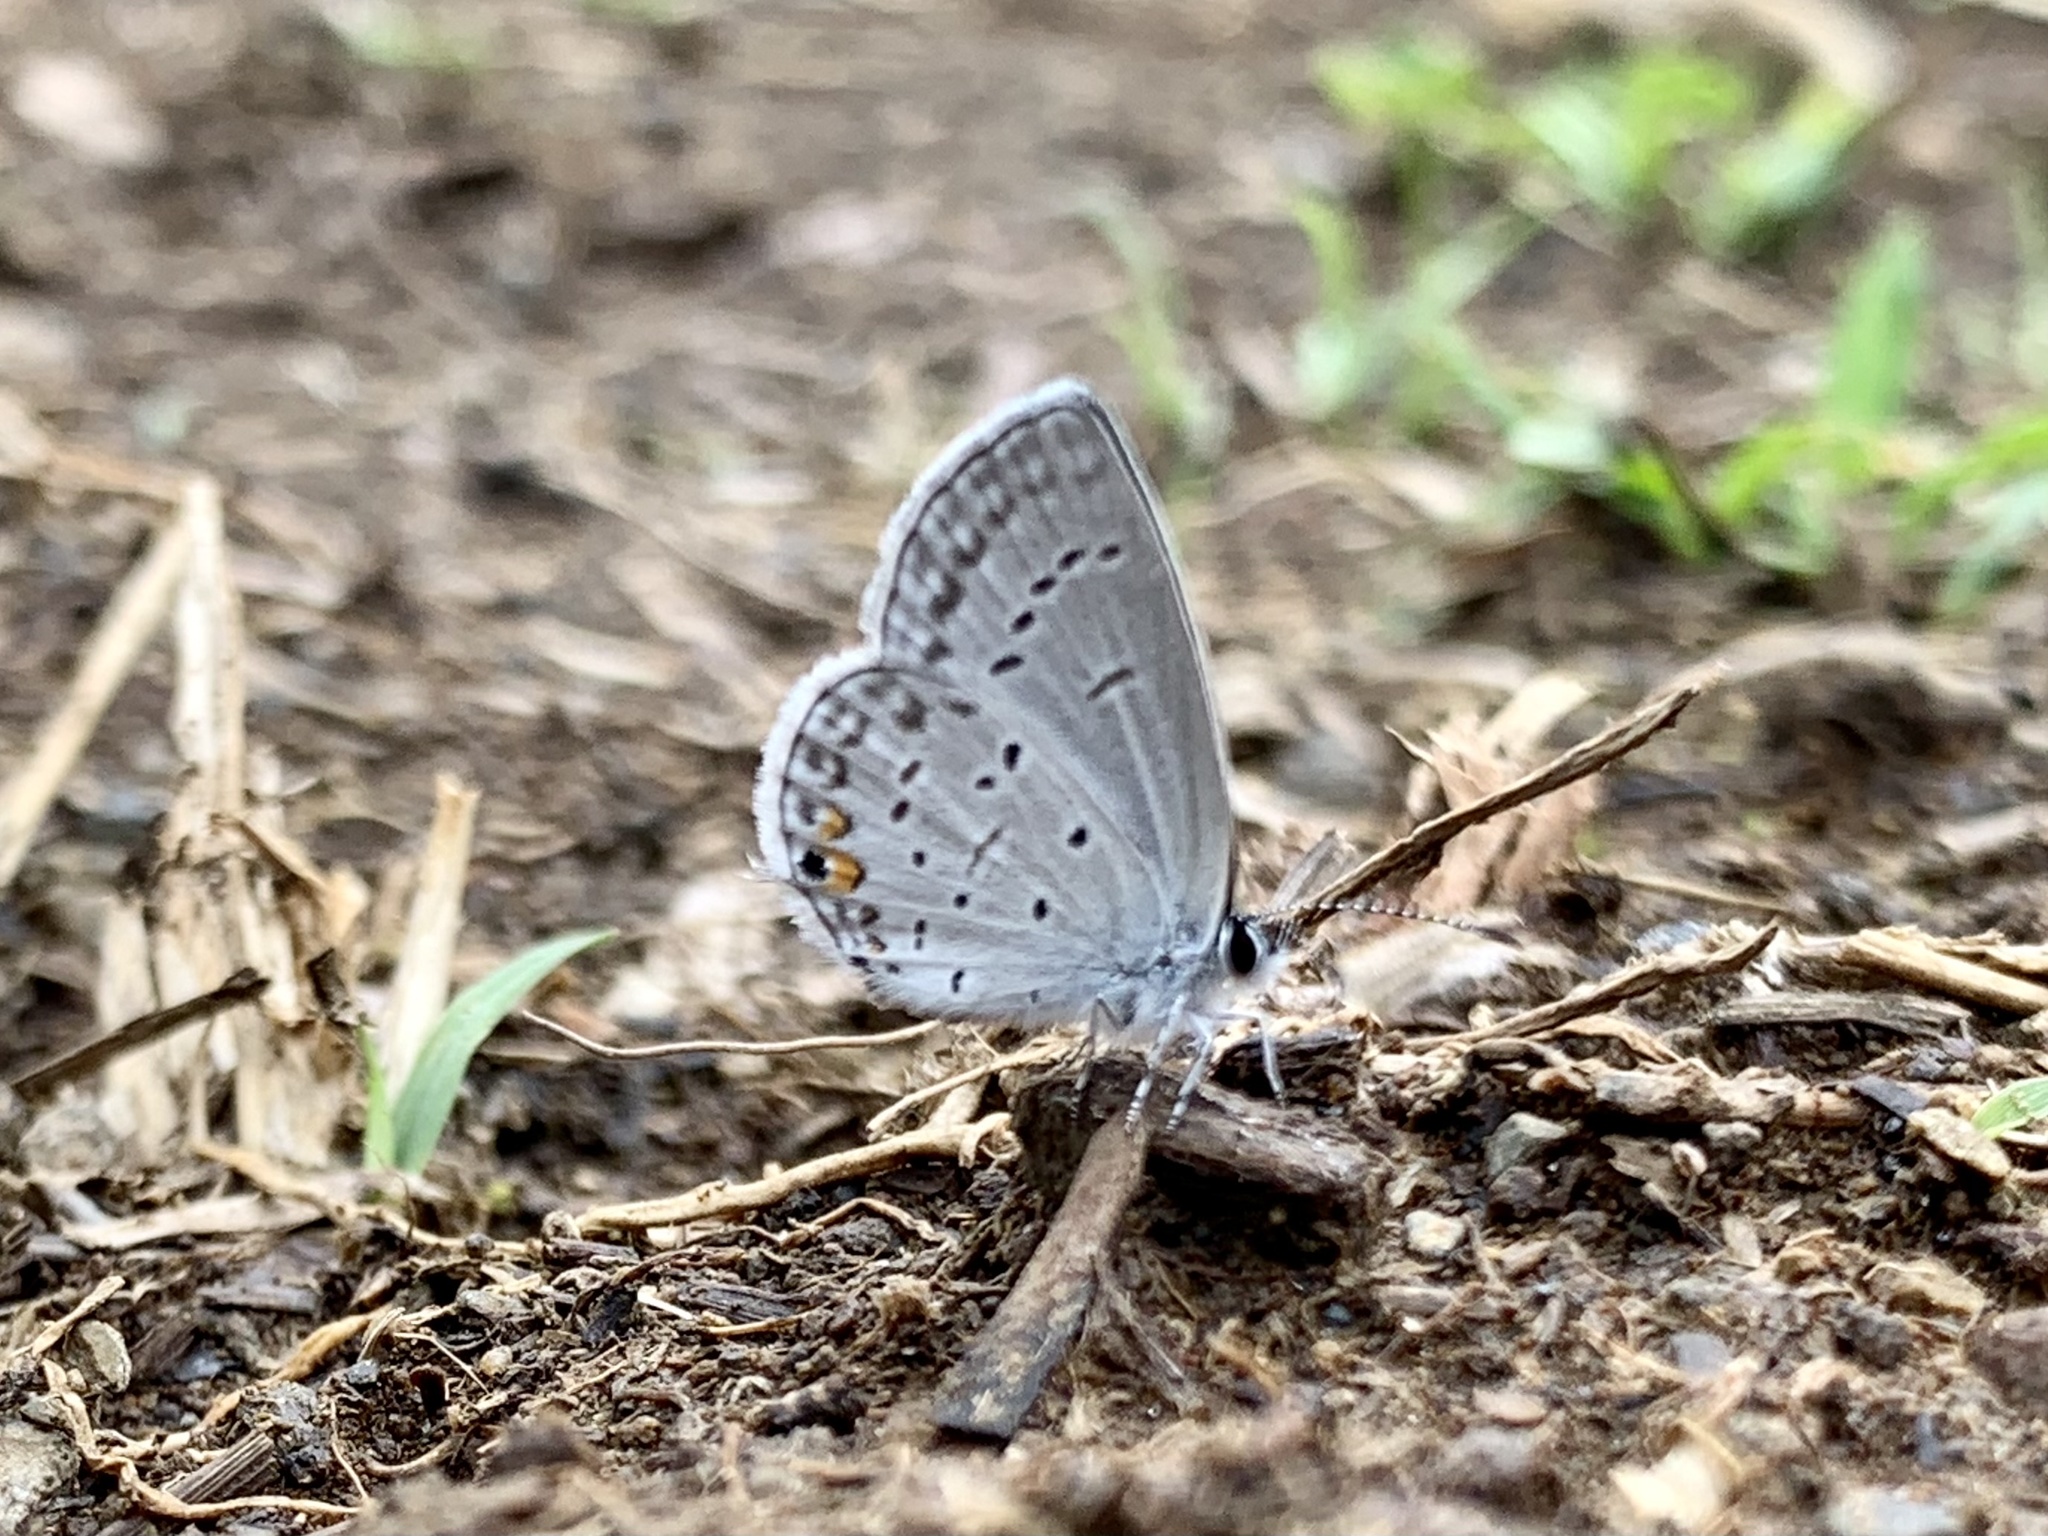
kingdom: Animalia
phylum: Arthropoda
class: Insecta
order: Lepidoptera
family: Lycaenidae
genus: Elkalyce
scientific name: Elkalyce comyntas
